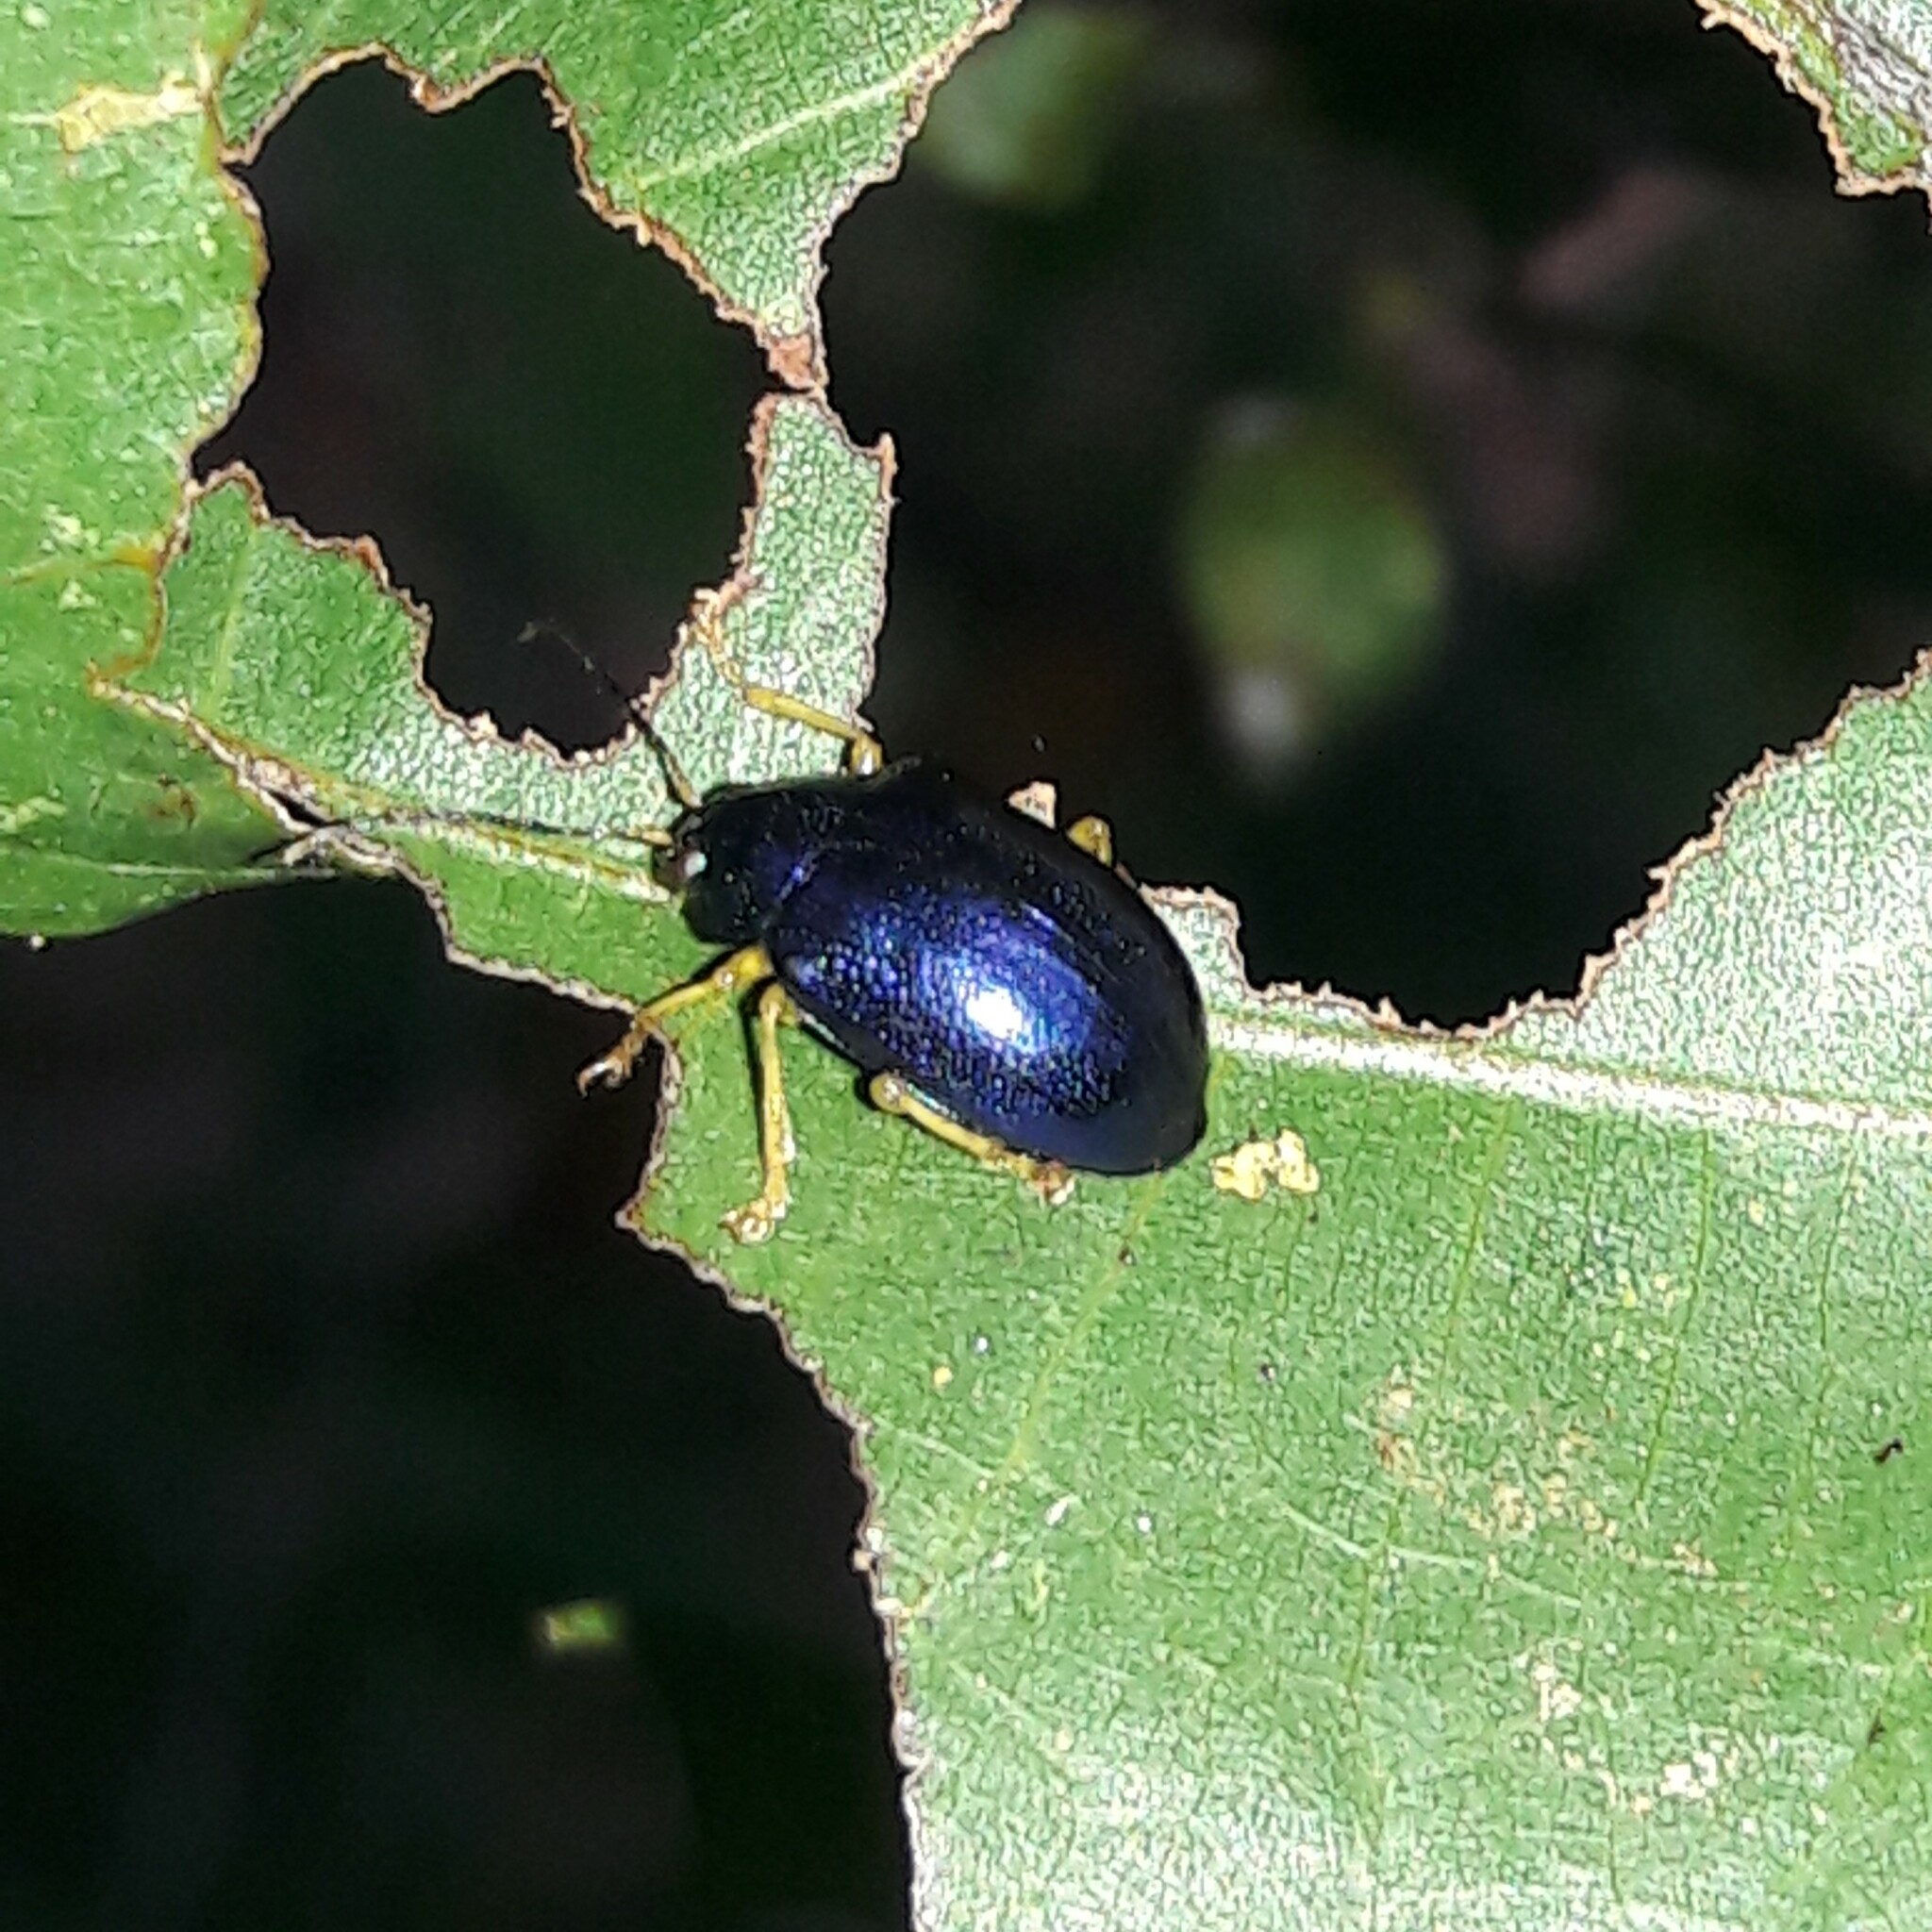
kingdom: Animalia
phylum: Arthropoda
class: Insecta
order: Coleoptera
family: Chrysomelidae
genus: Colaspis
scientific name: Colaspis
